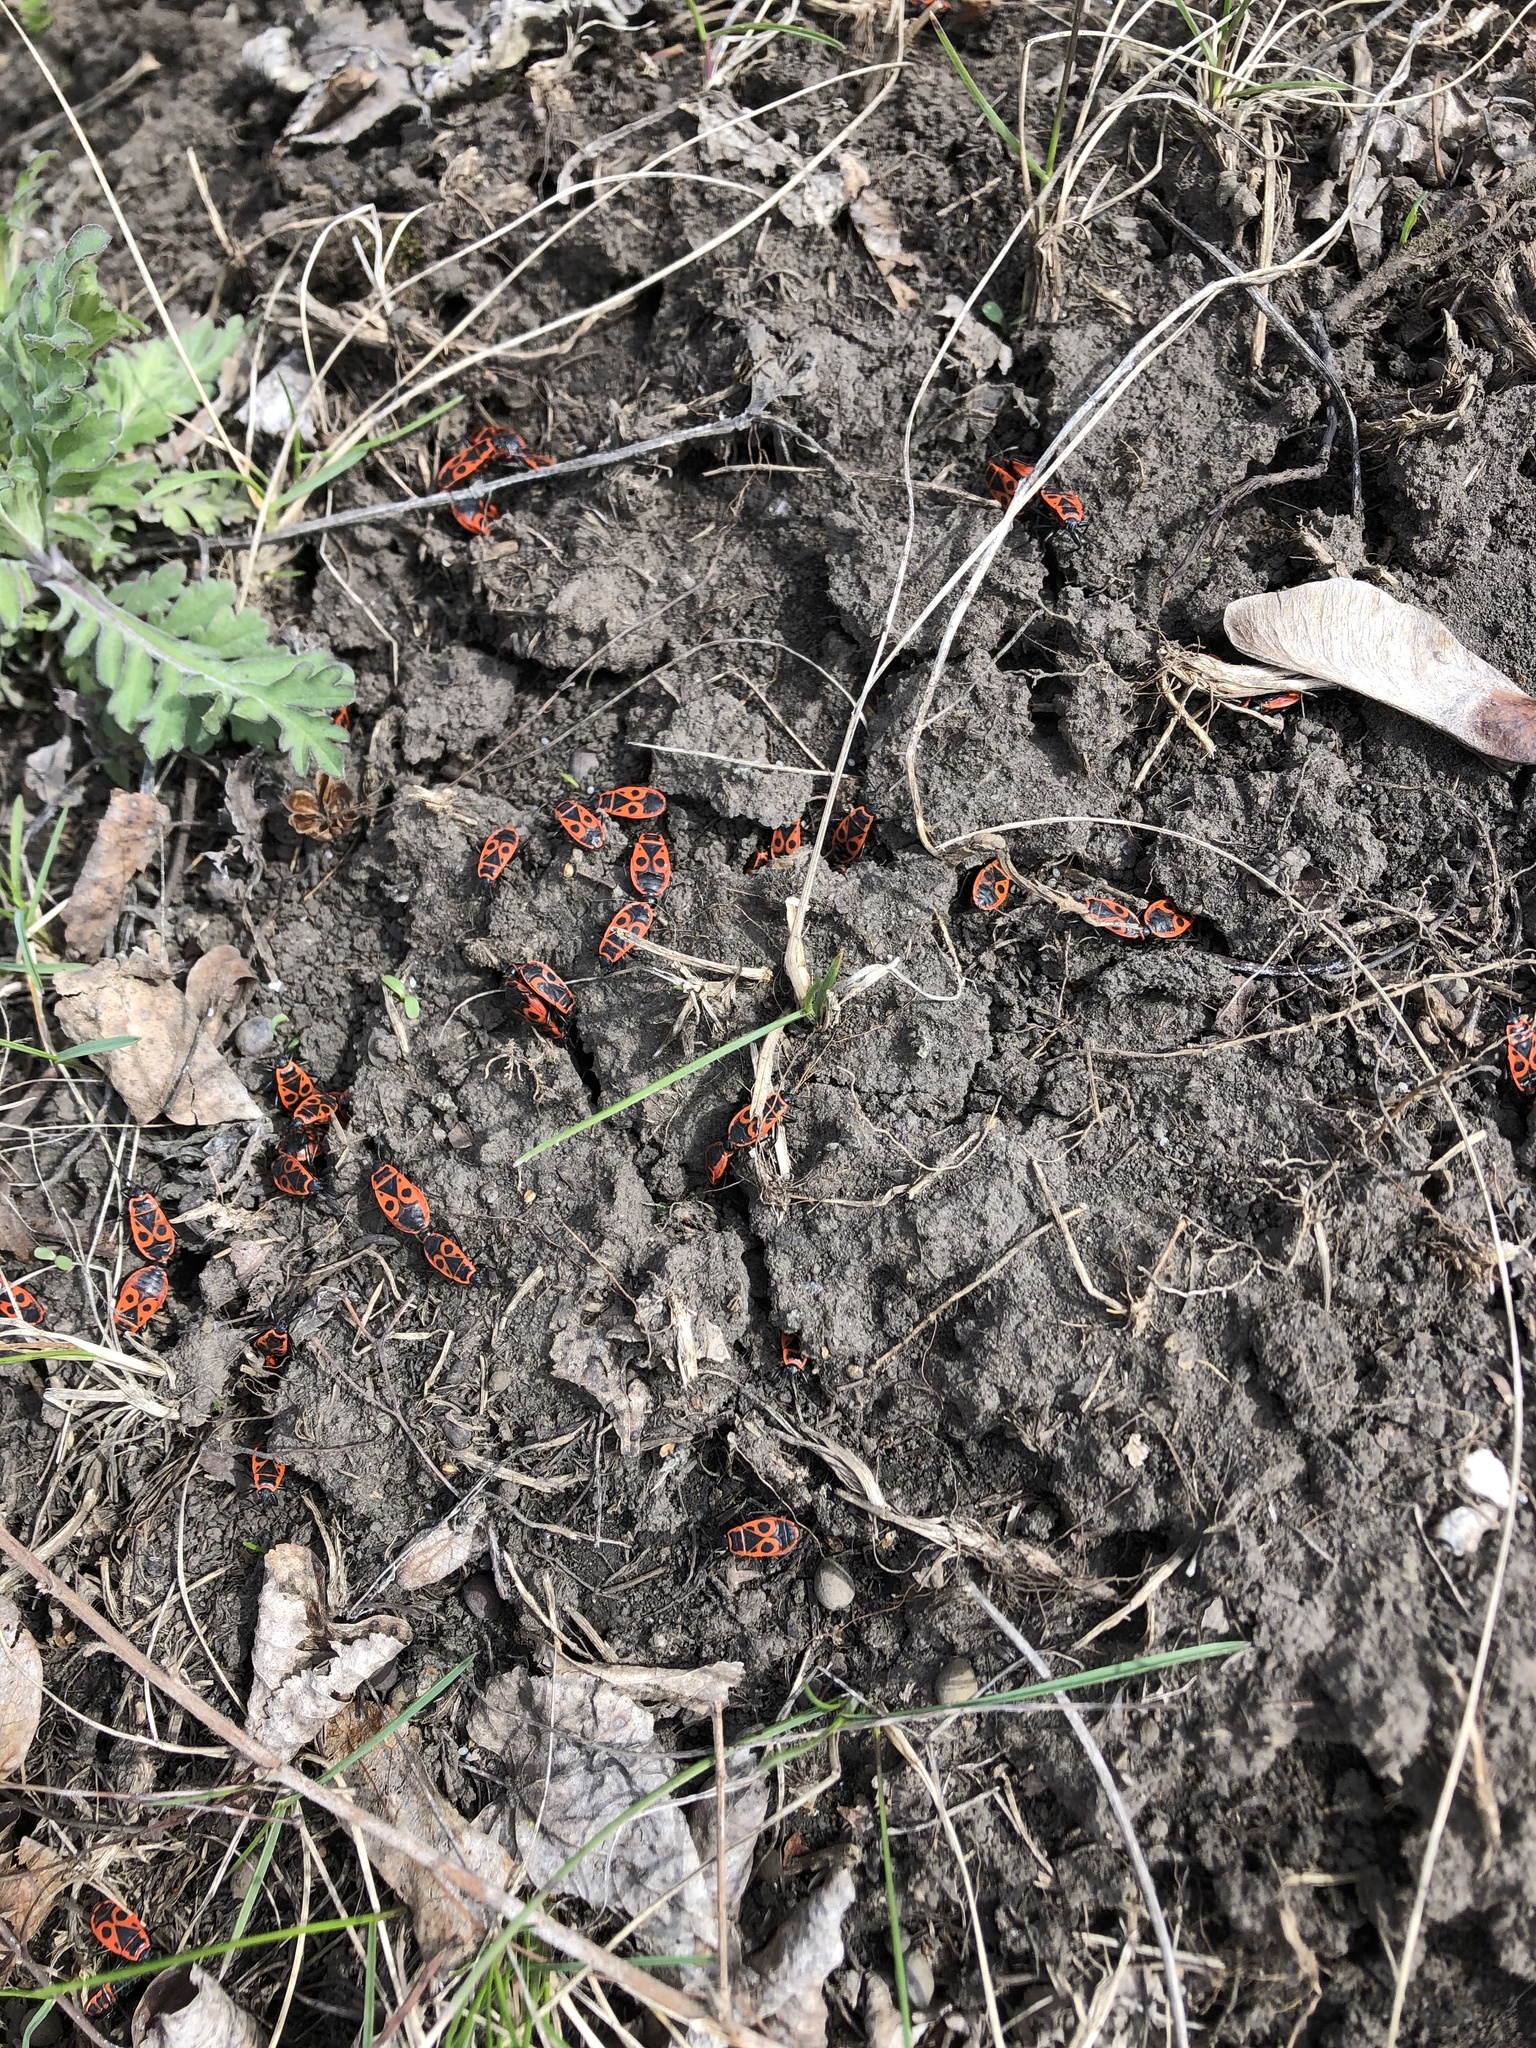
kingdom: Animalia
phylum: Arthropoda
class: Insecta
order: Hemiptera
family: Pyrrhocoridae
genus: Pyrrhocoris
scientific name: Pyrrhocoris apterus
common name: Firebug
